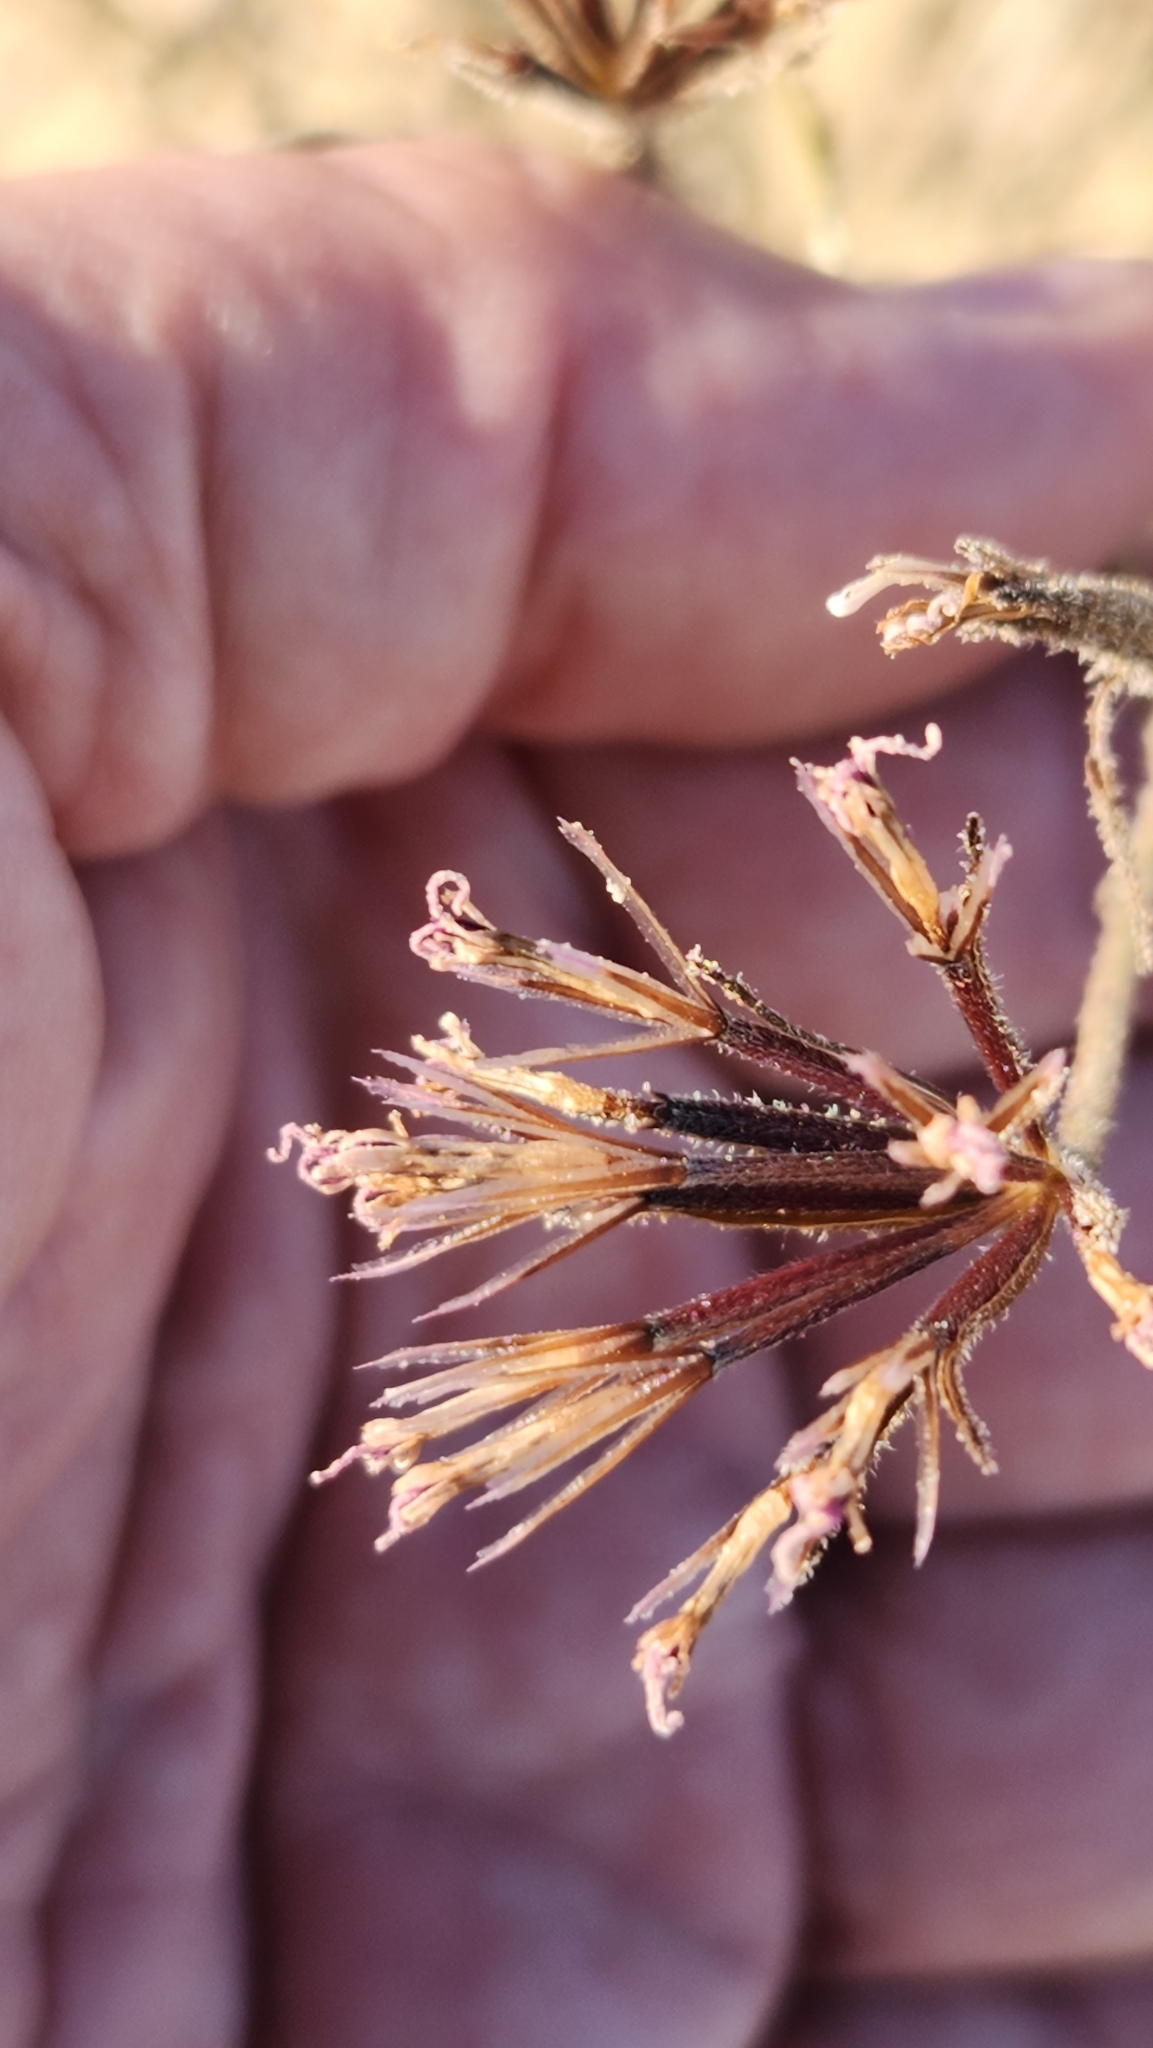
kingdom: Plantae
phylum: Tracheophyta
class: Magnoliopsida
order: Asterales
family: Asteraceae
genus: Palafoxia
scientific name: Palafoxia arida
